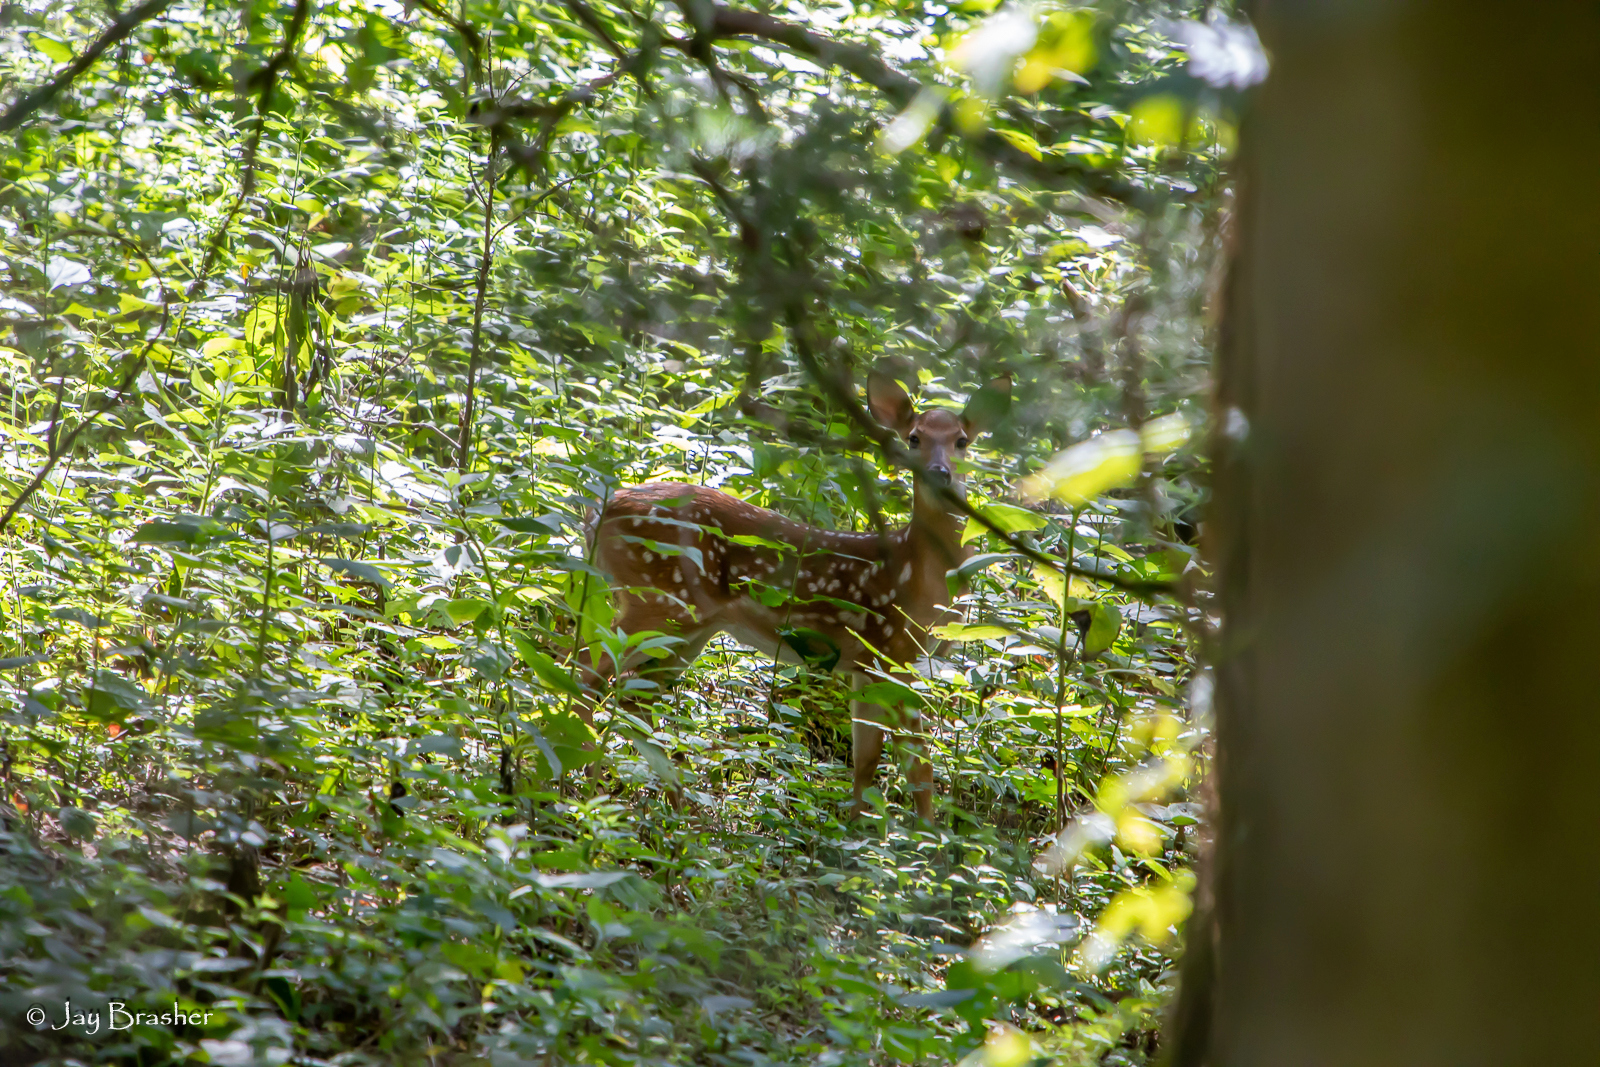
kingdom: Animalia
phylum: Chordata
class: Mammalia
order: Artiodactyla
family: Cervidae
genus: Odocoileus
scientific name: Odocoileus virginianus
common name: White-tailed deer
